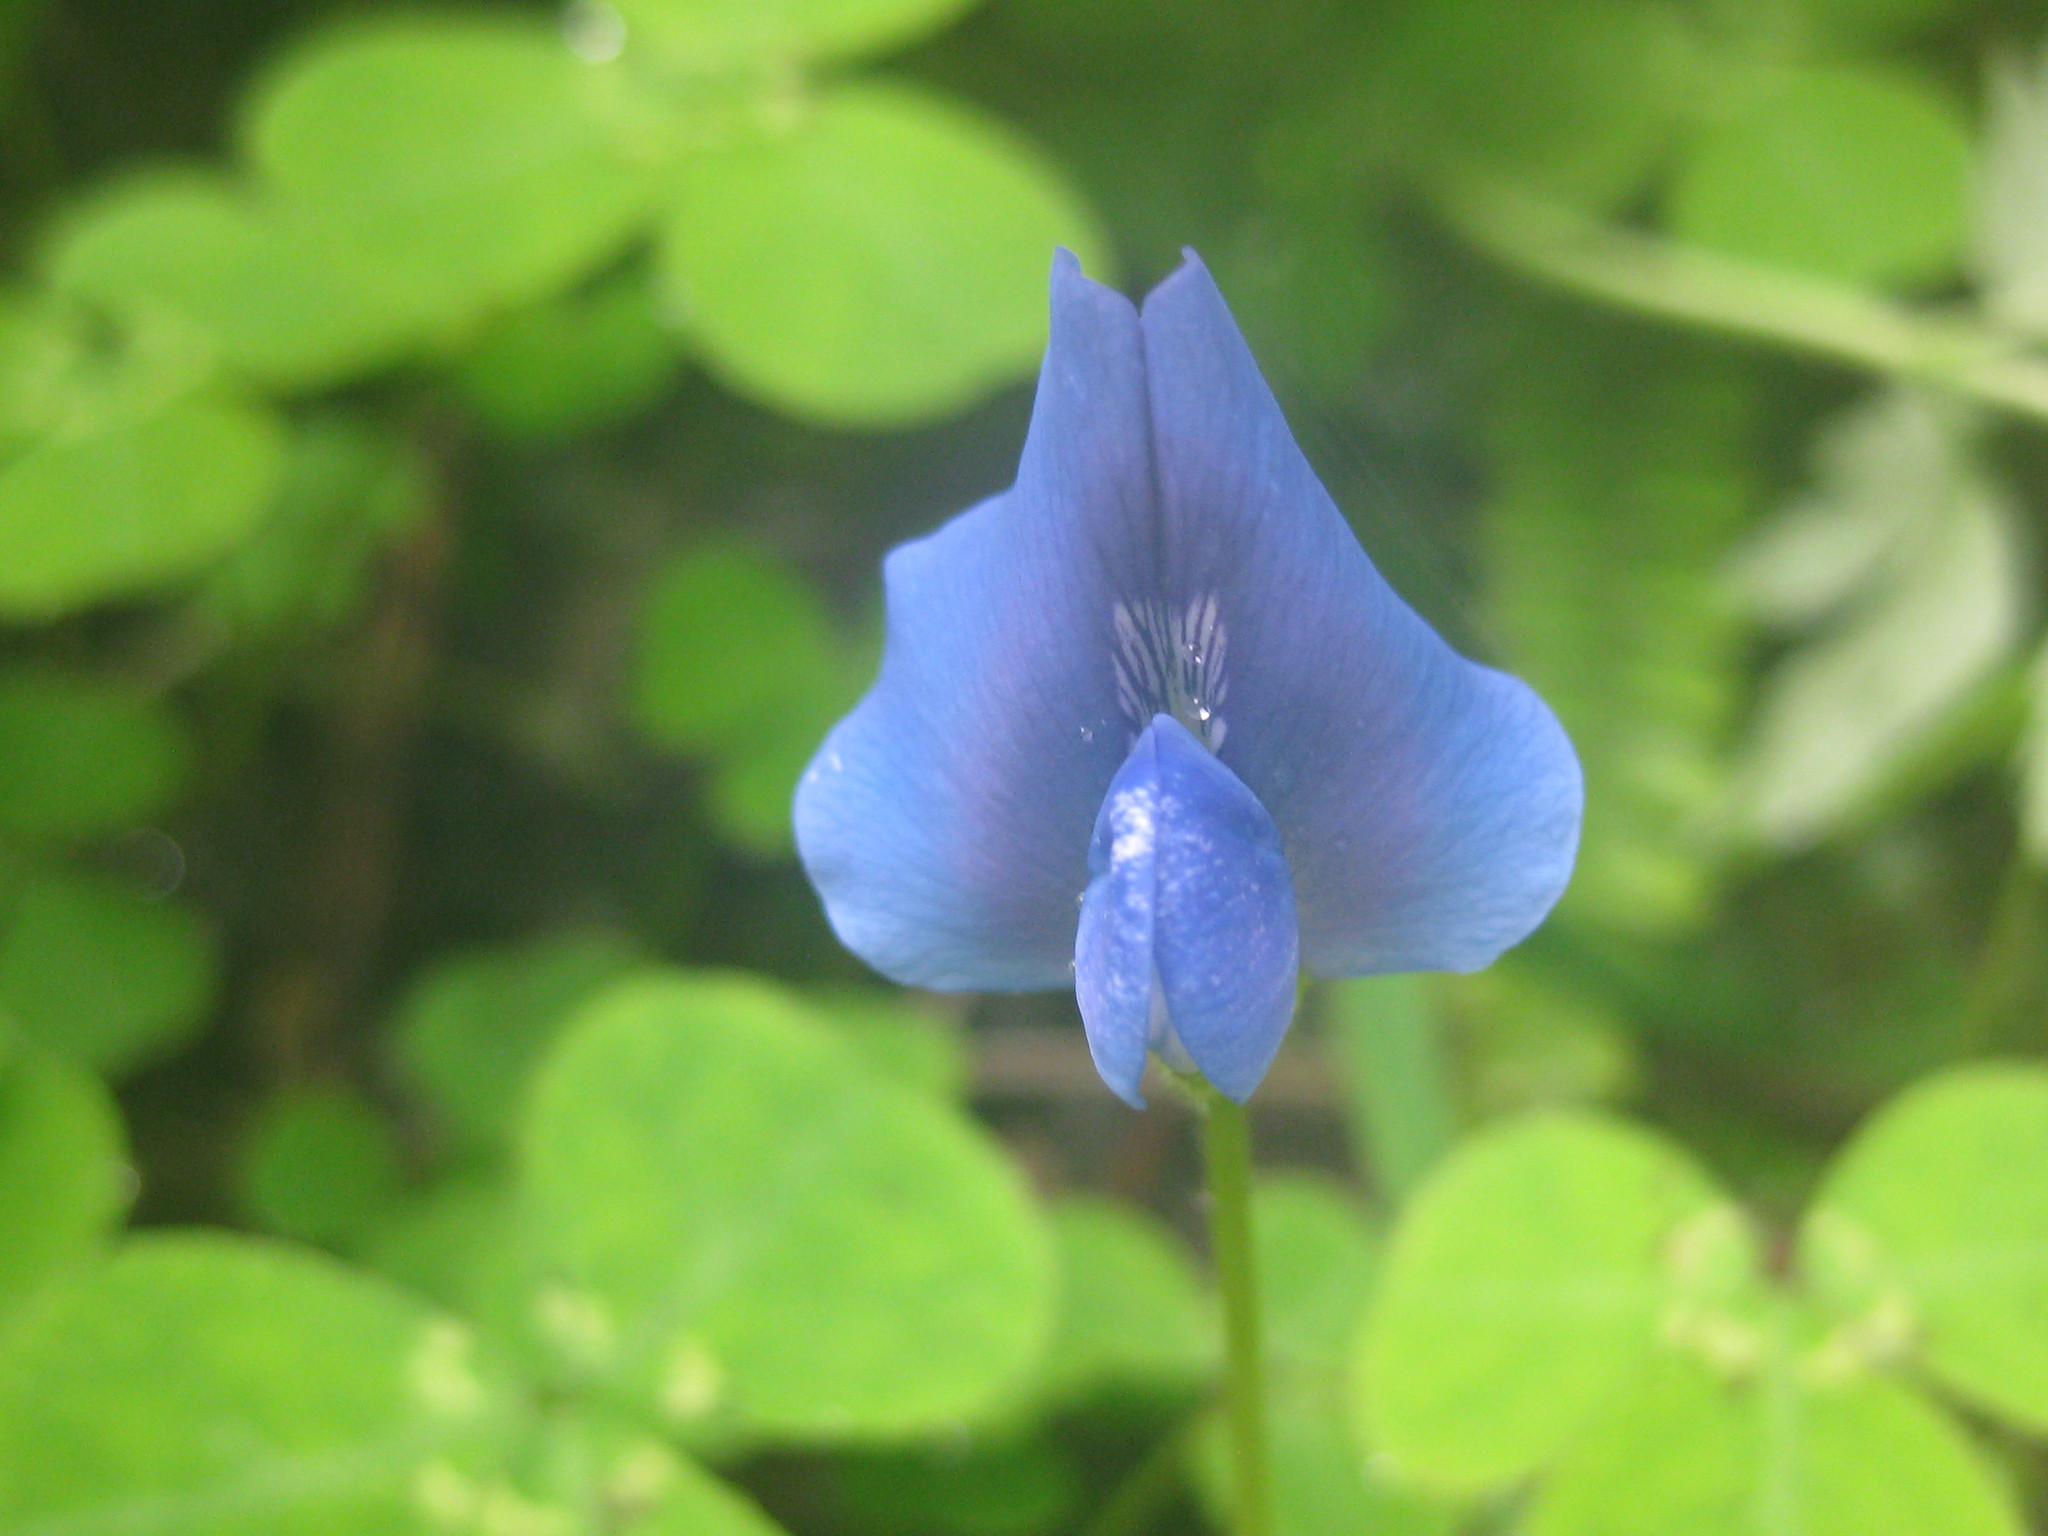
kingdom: Plantae
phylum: Tracheophyta
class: Magnoliopsida
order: Fabales
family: Fabaceae
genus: Parochetus
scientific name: Parochetus communis
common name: Blue oxalis
